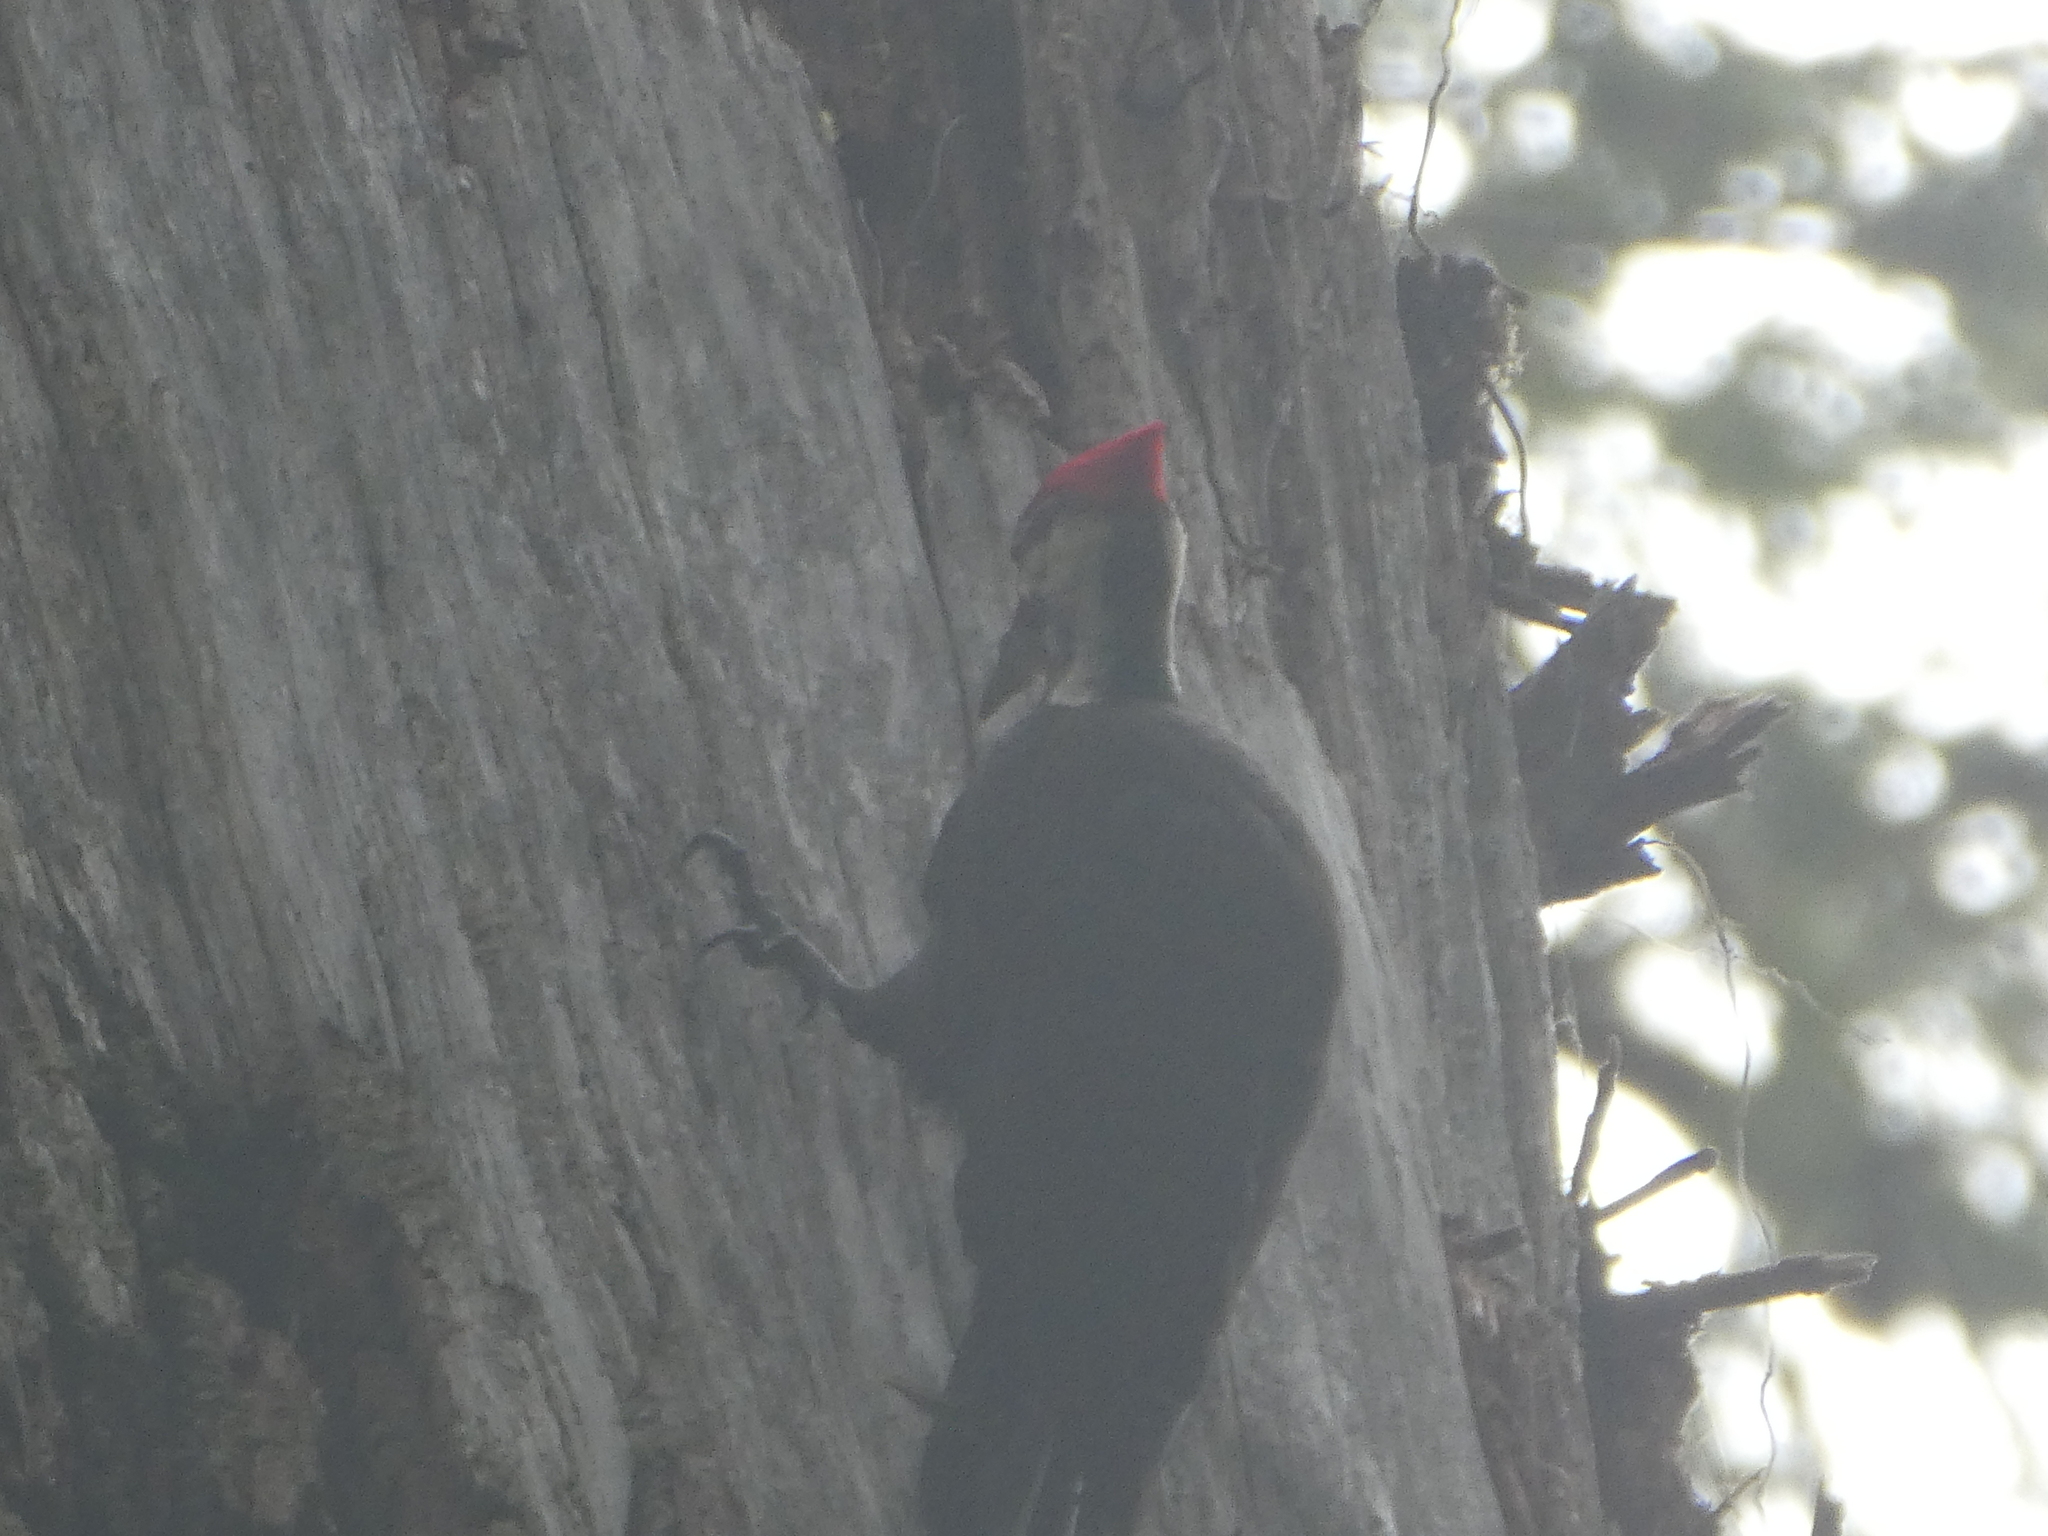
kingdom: Animalia
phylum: Chordata
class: Aves
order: Piciformes
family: Picidae
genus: Dryocopus
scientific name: Dryocopus pileatus
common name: Pileated woodpecker
